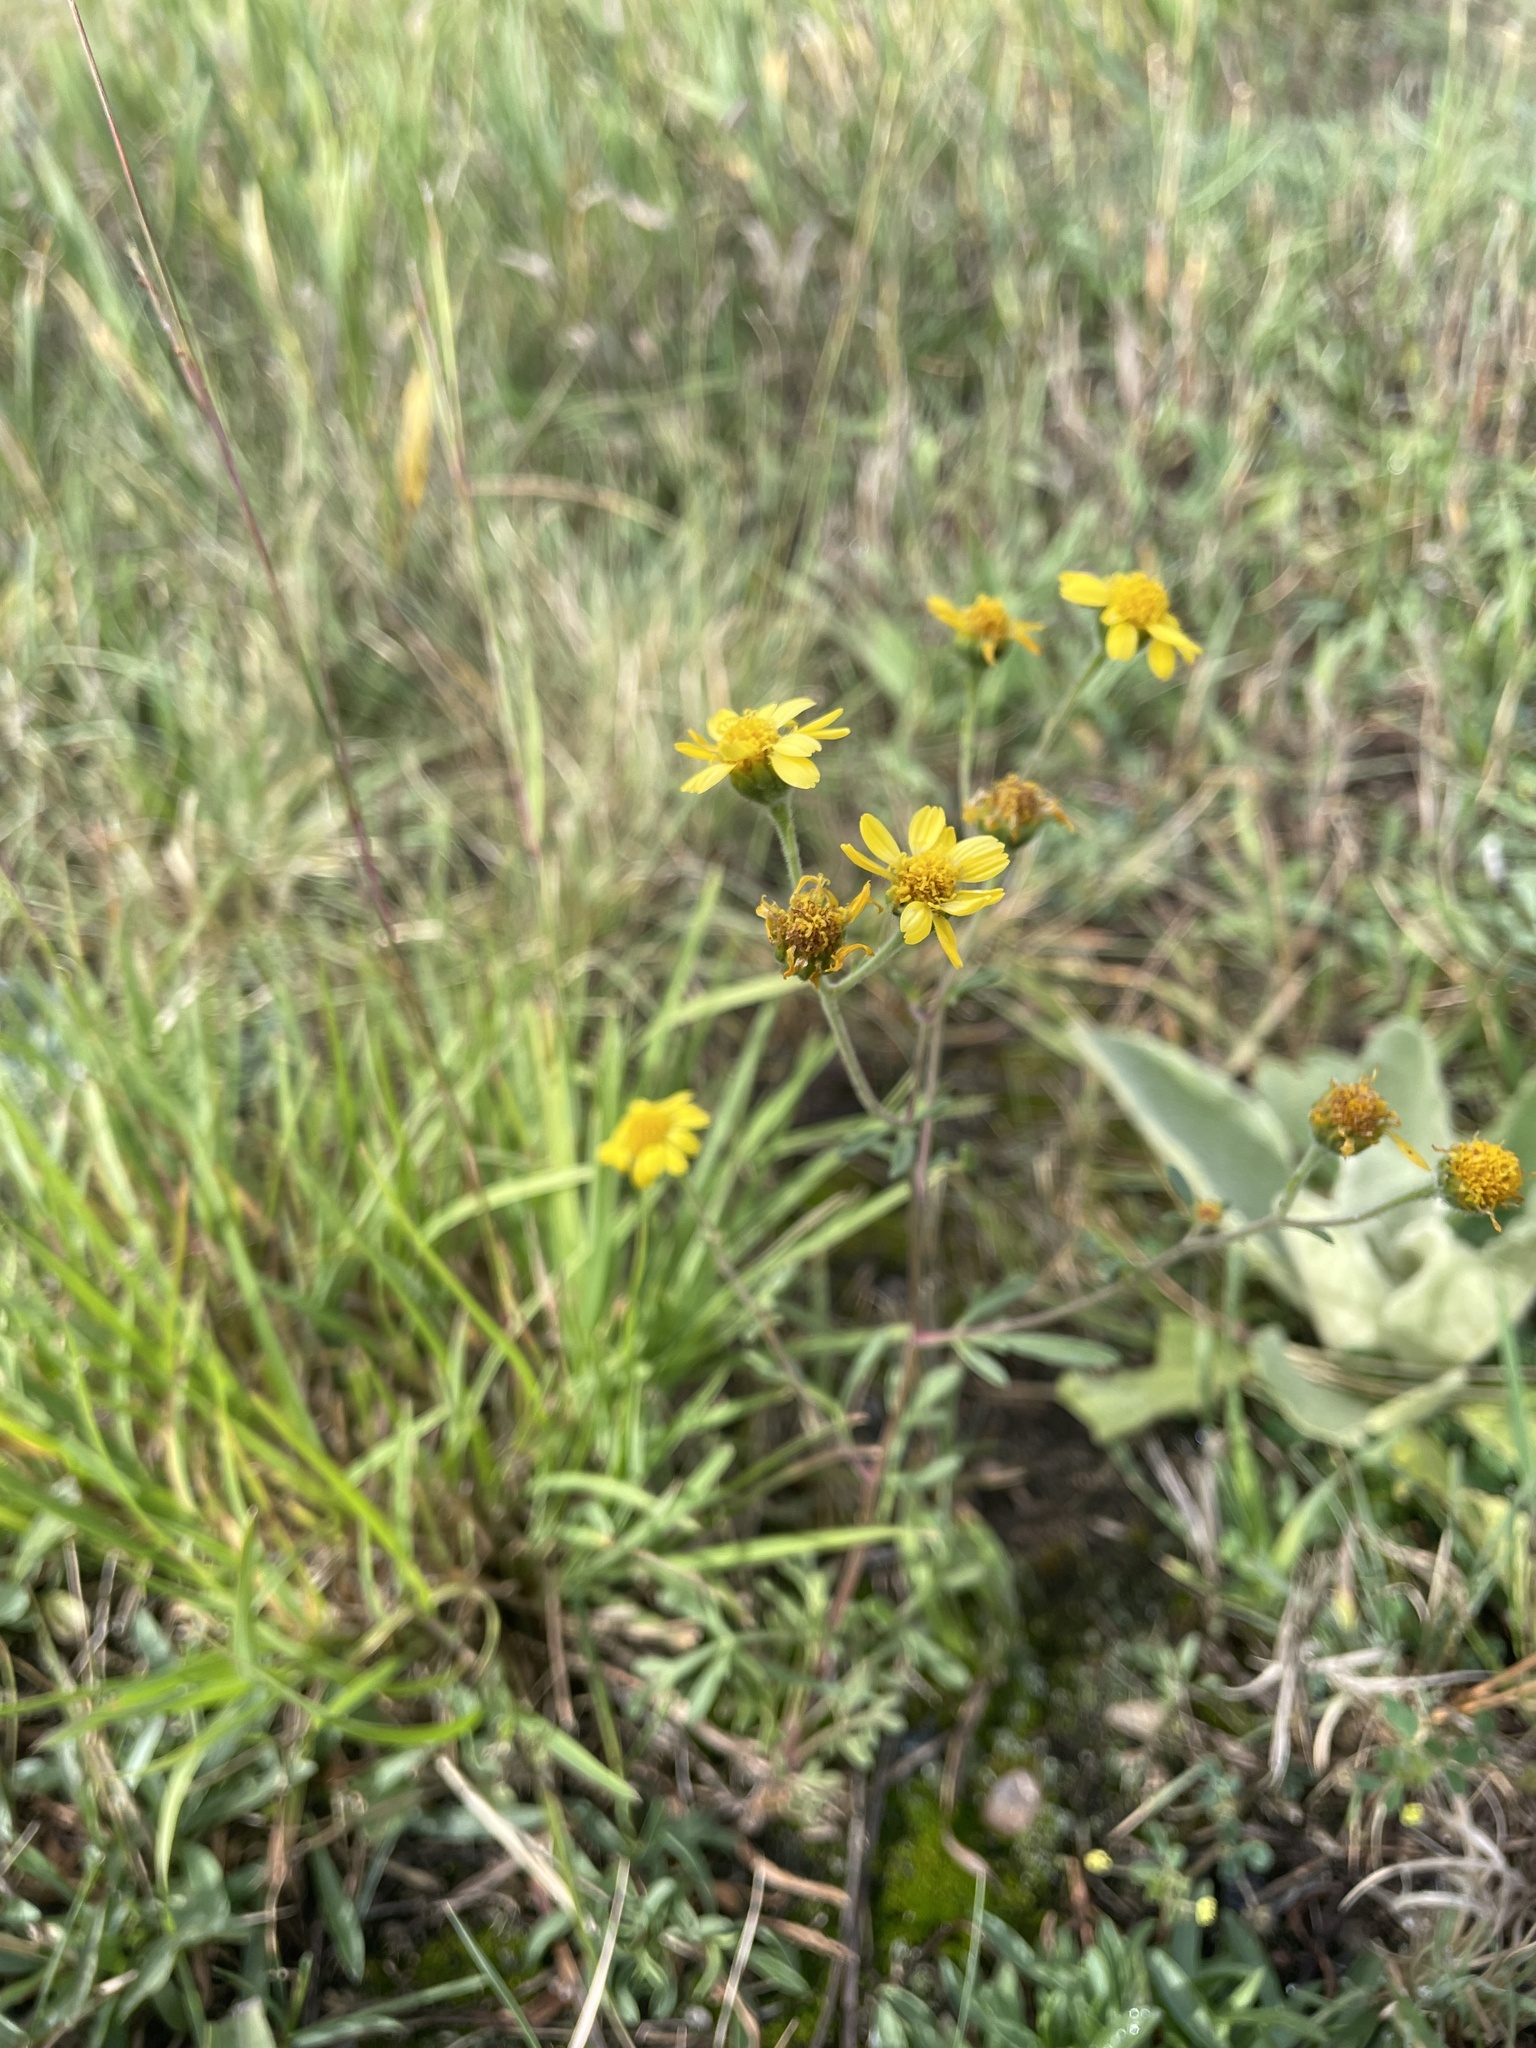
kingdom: Plantae
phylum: Tracheophyta
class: Magnoliopsida
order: Asterales
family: Asteraceae
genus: Hymenothrix
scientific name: Hymenothrix dissecta
